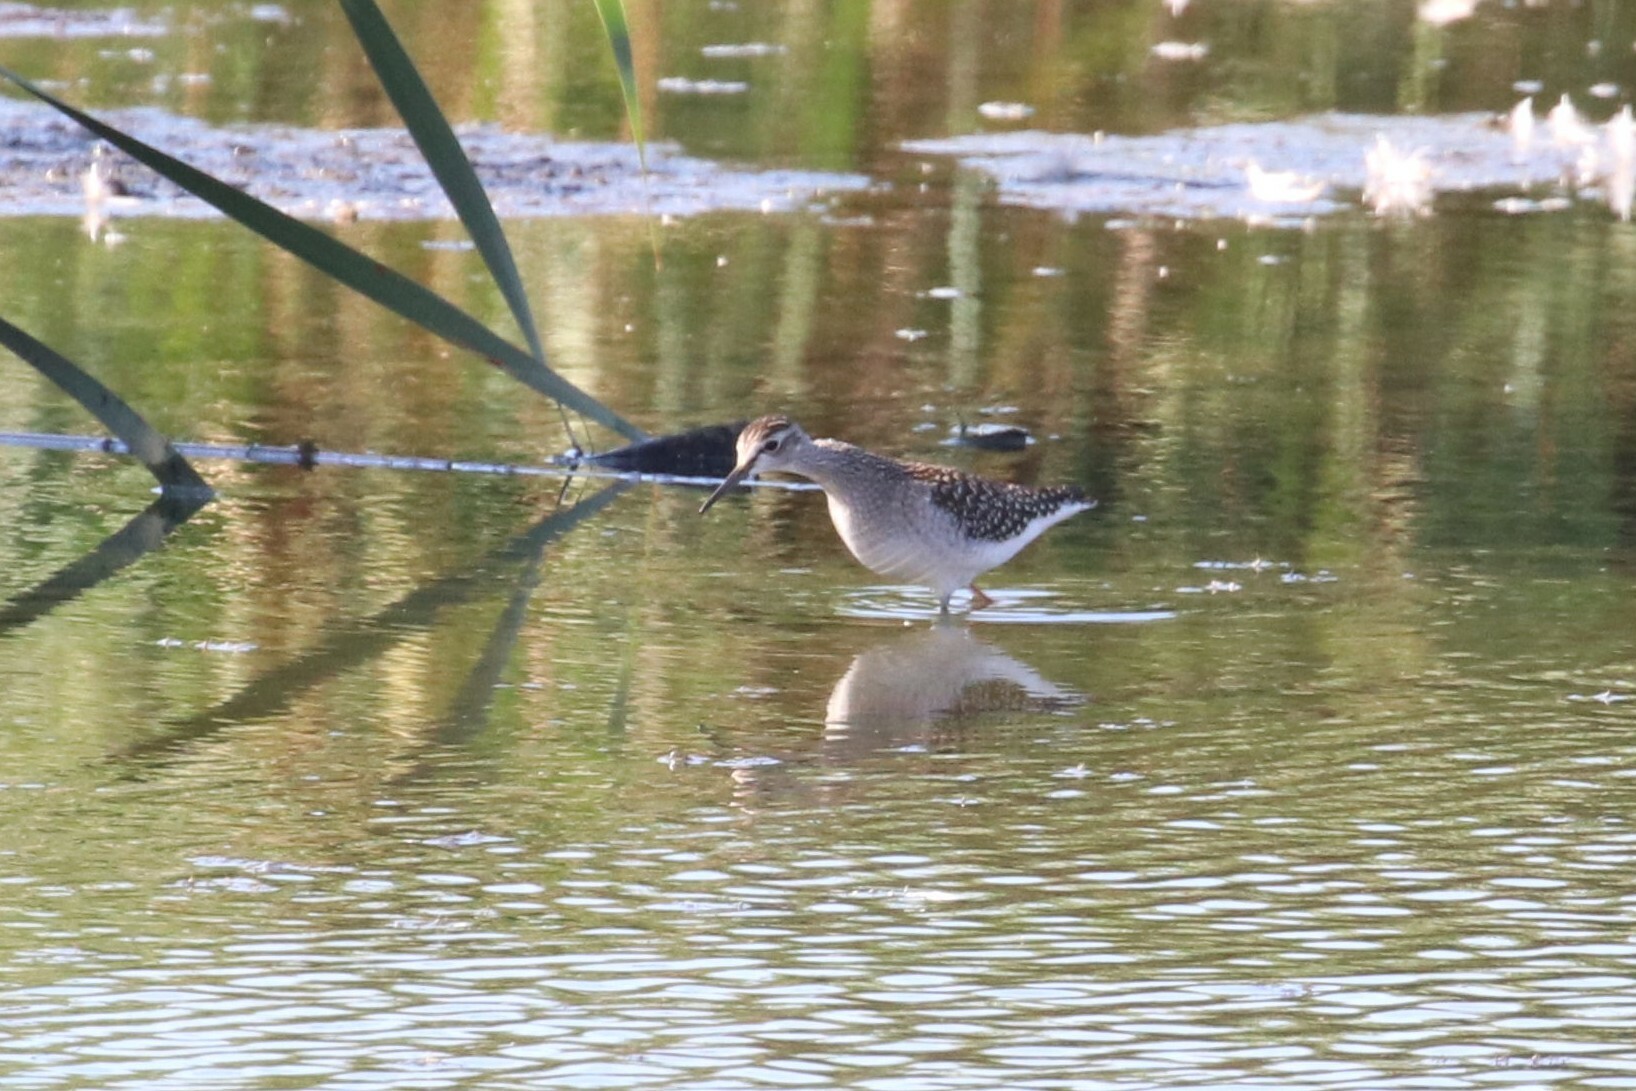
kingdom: Animalia
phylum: Chordata
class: Aves
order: Charadriiformes
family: Scolopacidae
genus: Tringa
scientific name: Tringa glareola
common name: Wood sandpiper
